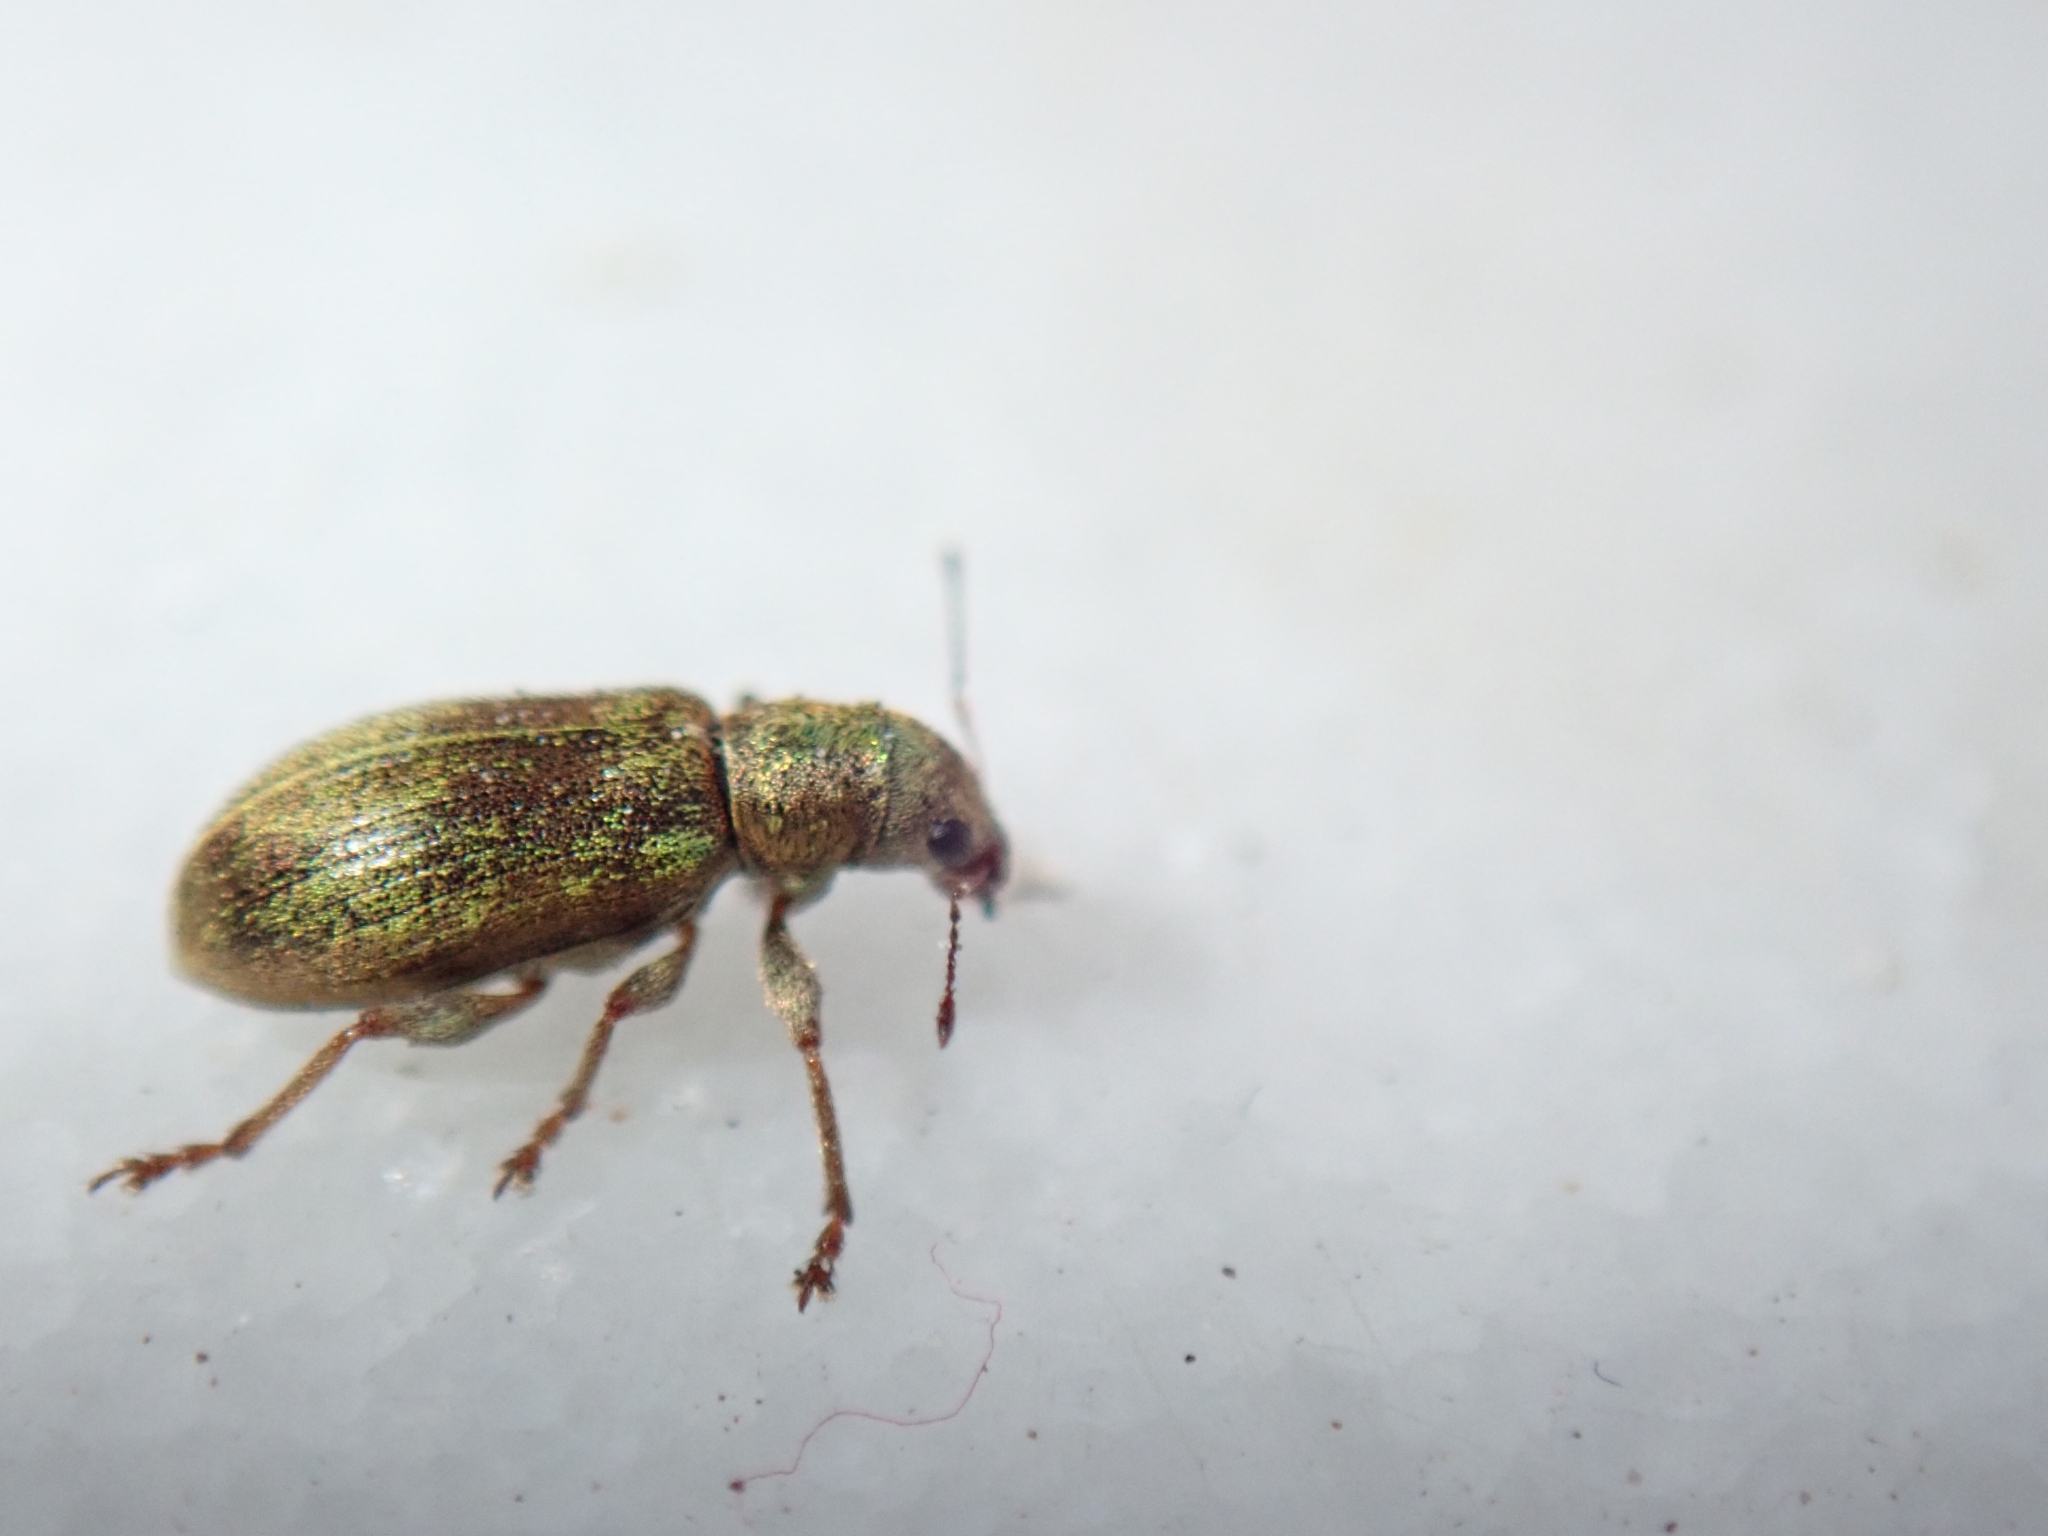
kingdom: Animalia
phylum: Arthropoda
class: Insecta
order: Coleoptera
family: Curculionidae
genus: Pachyrhinus
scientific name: Pachyrhinus lethierryi
